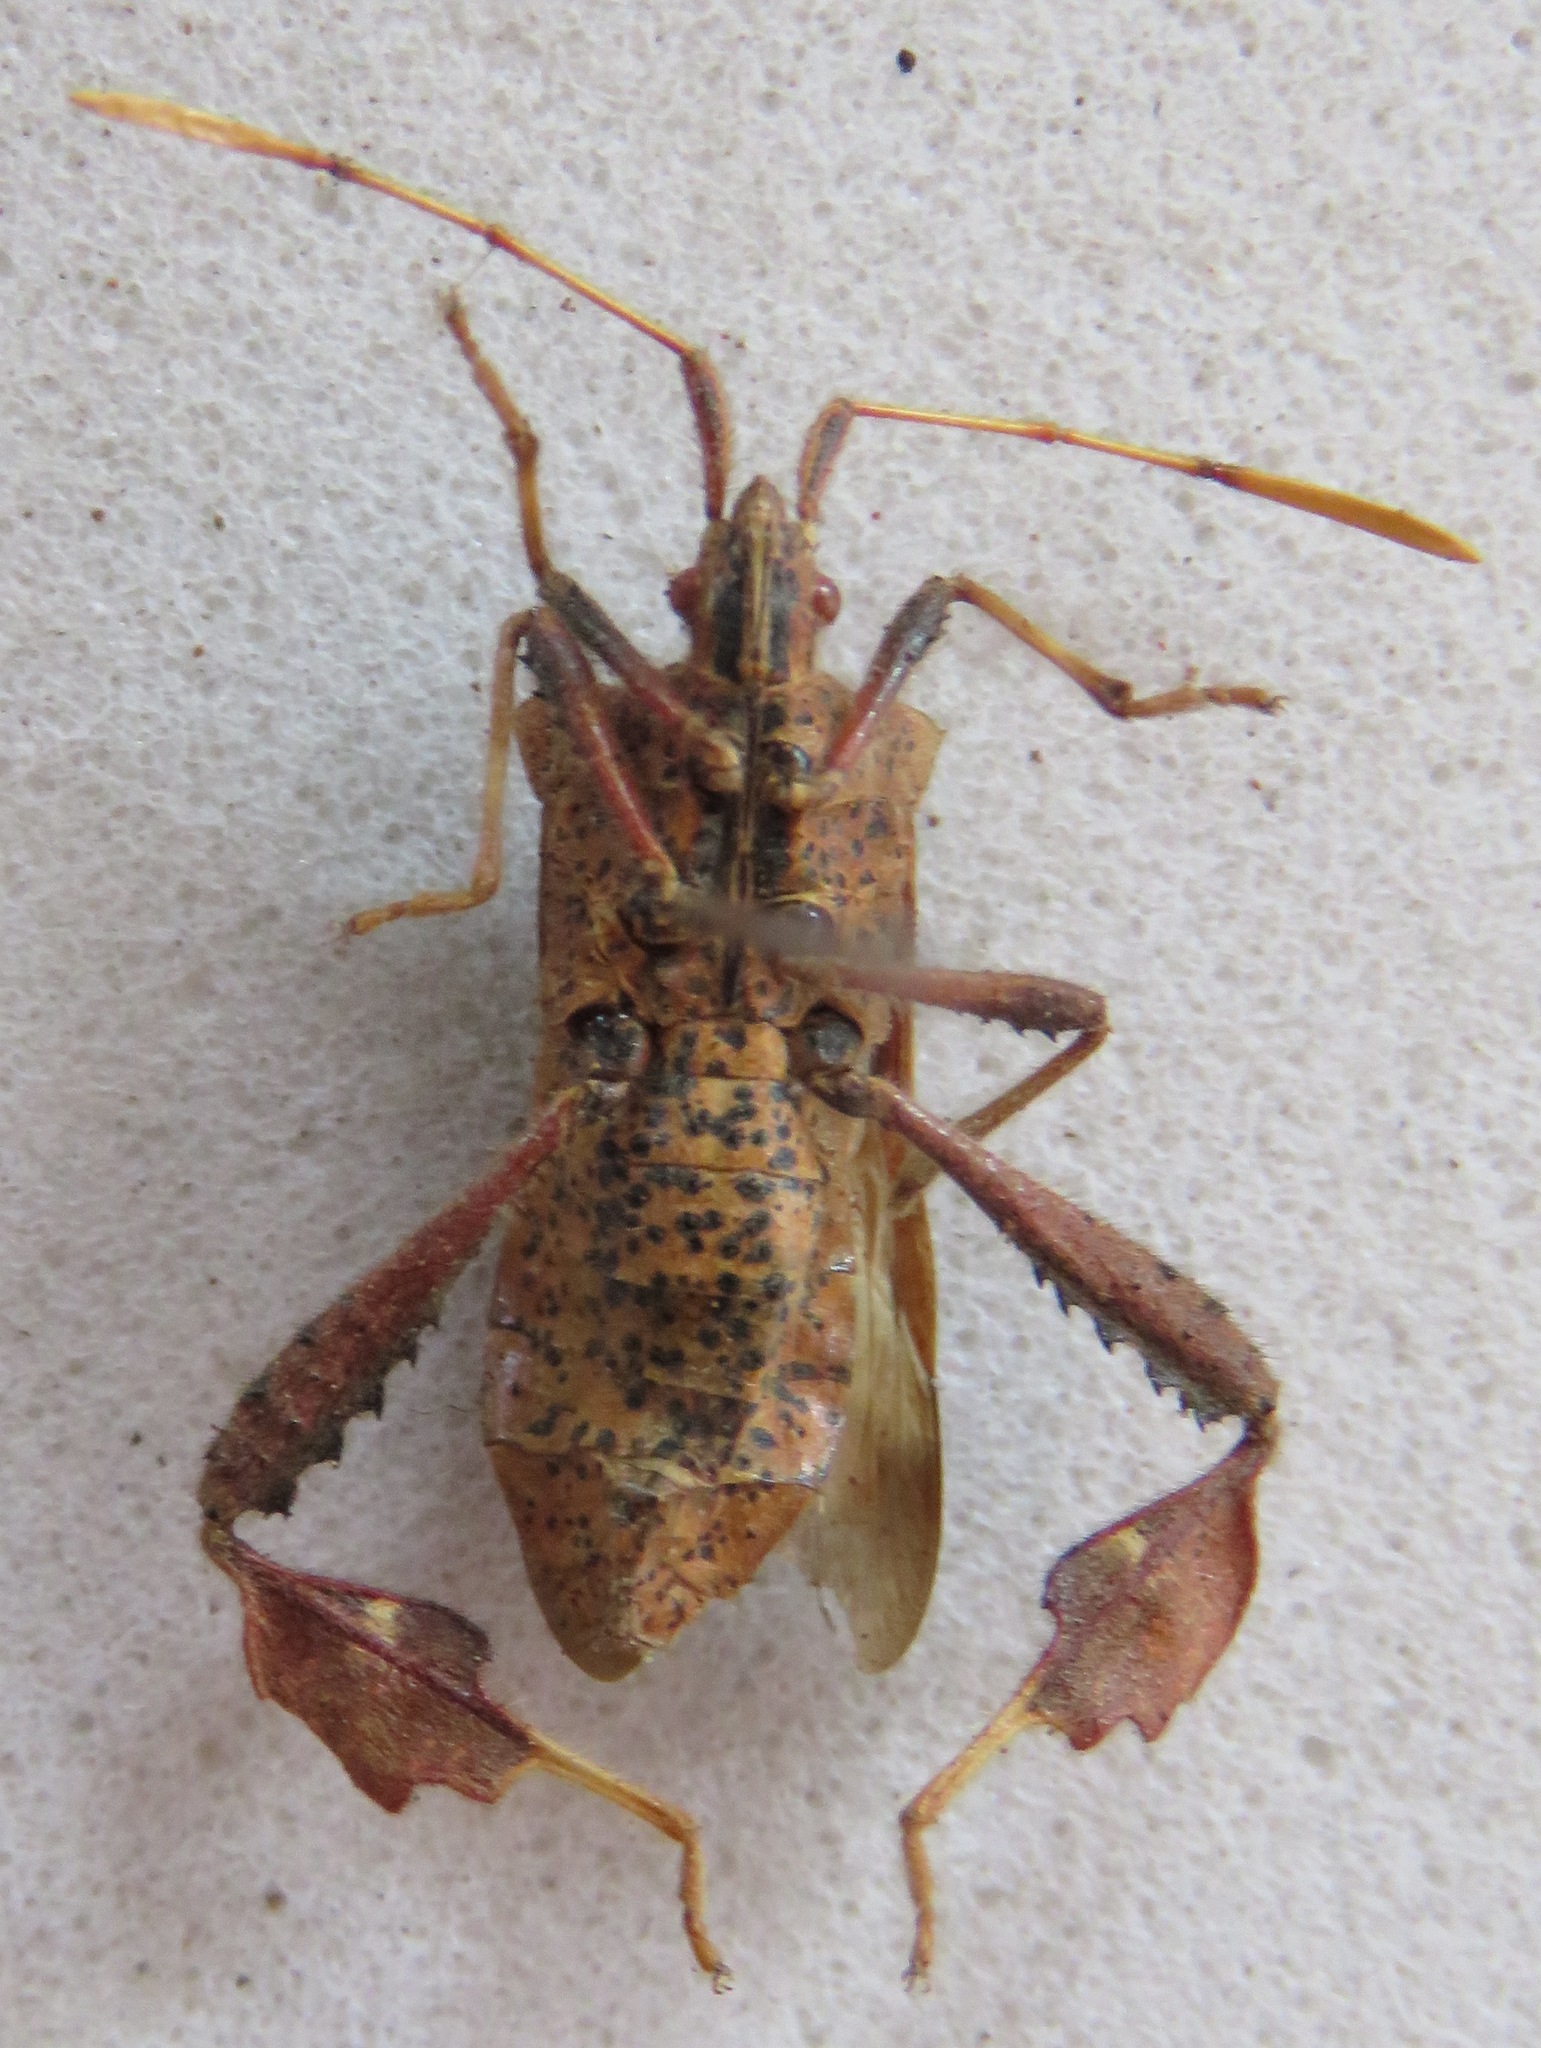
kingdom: Animalia
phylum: Arthropoda
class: Insecta
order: Hemiptera
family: Coreidae
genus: Leptoglossus
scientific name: Leptoglossus brevirostris
